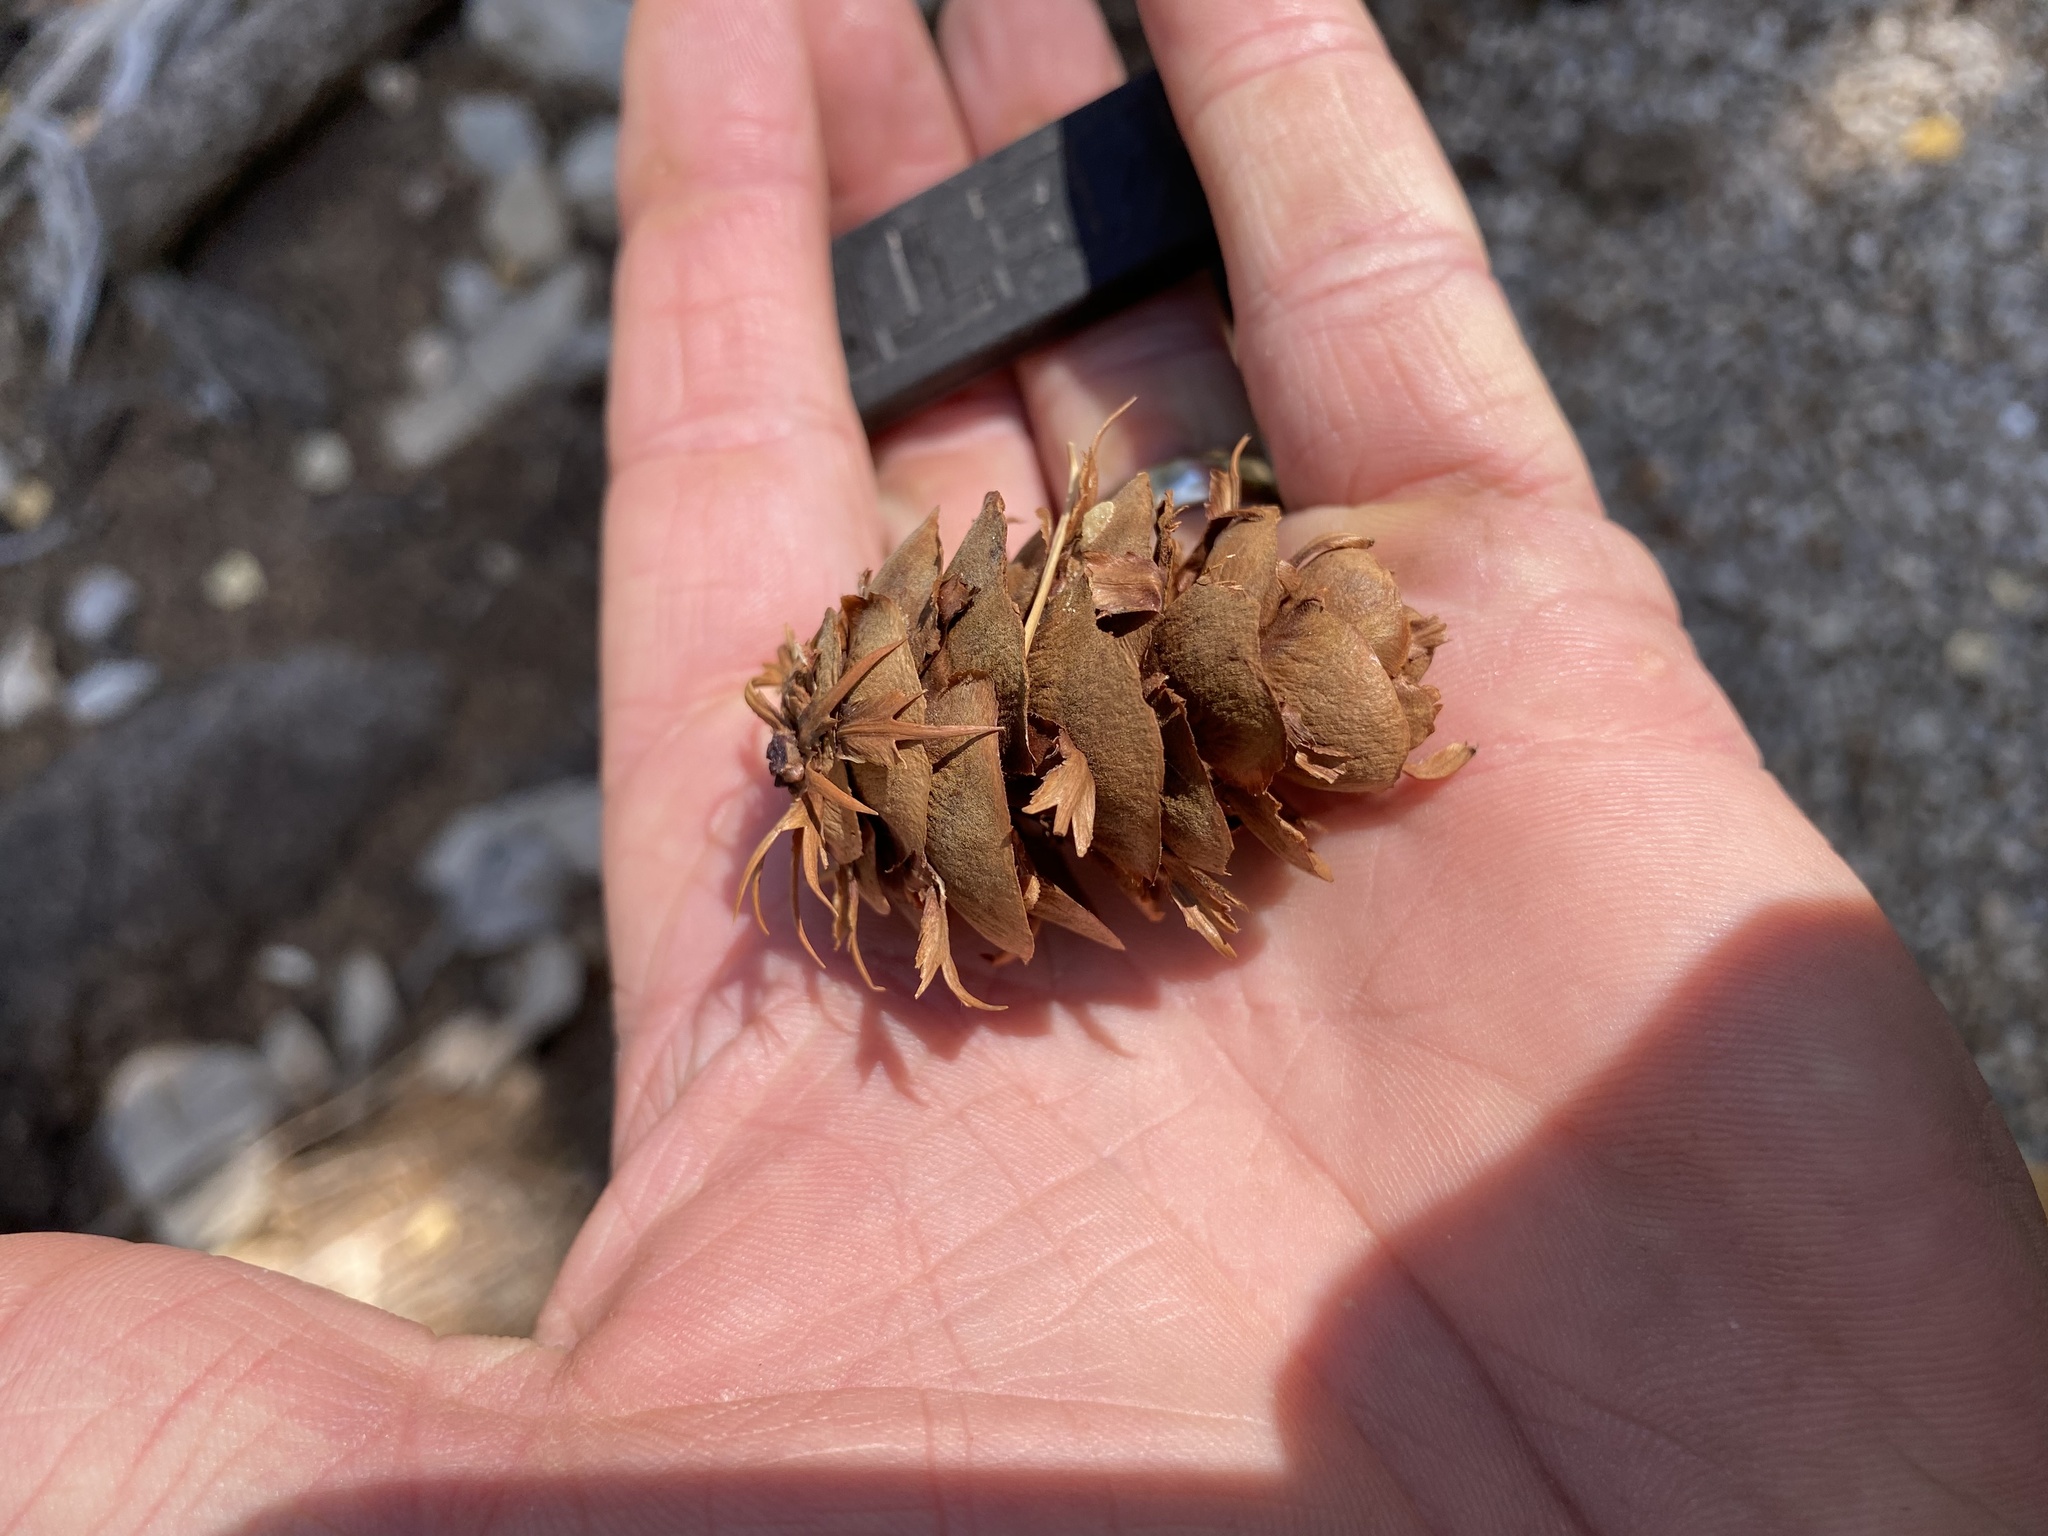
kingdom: Plantae
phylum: Tracheophyta
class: Pinopsida
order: Pinales
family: Pinaceae
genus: Pseudotsuga
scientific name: Pseudotsuga menziesii
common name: Douglas fir
